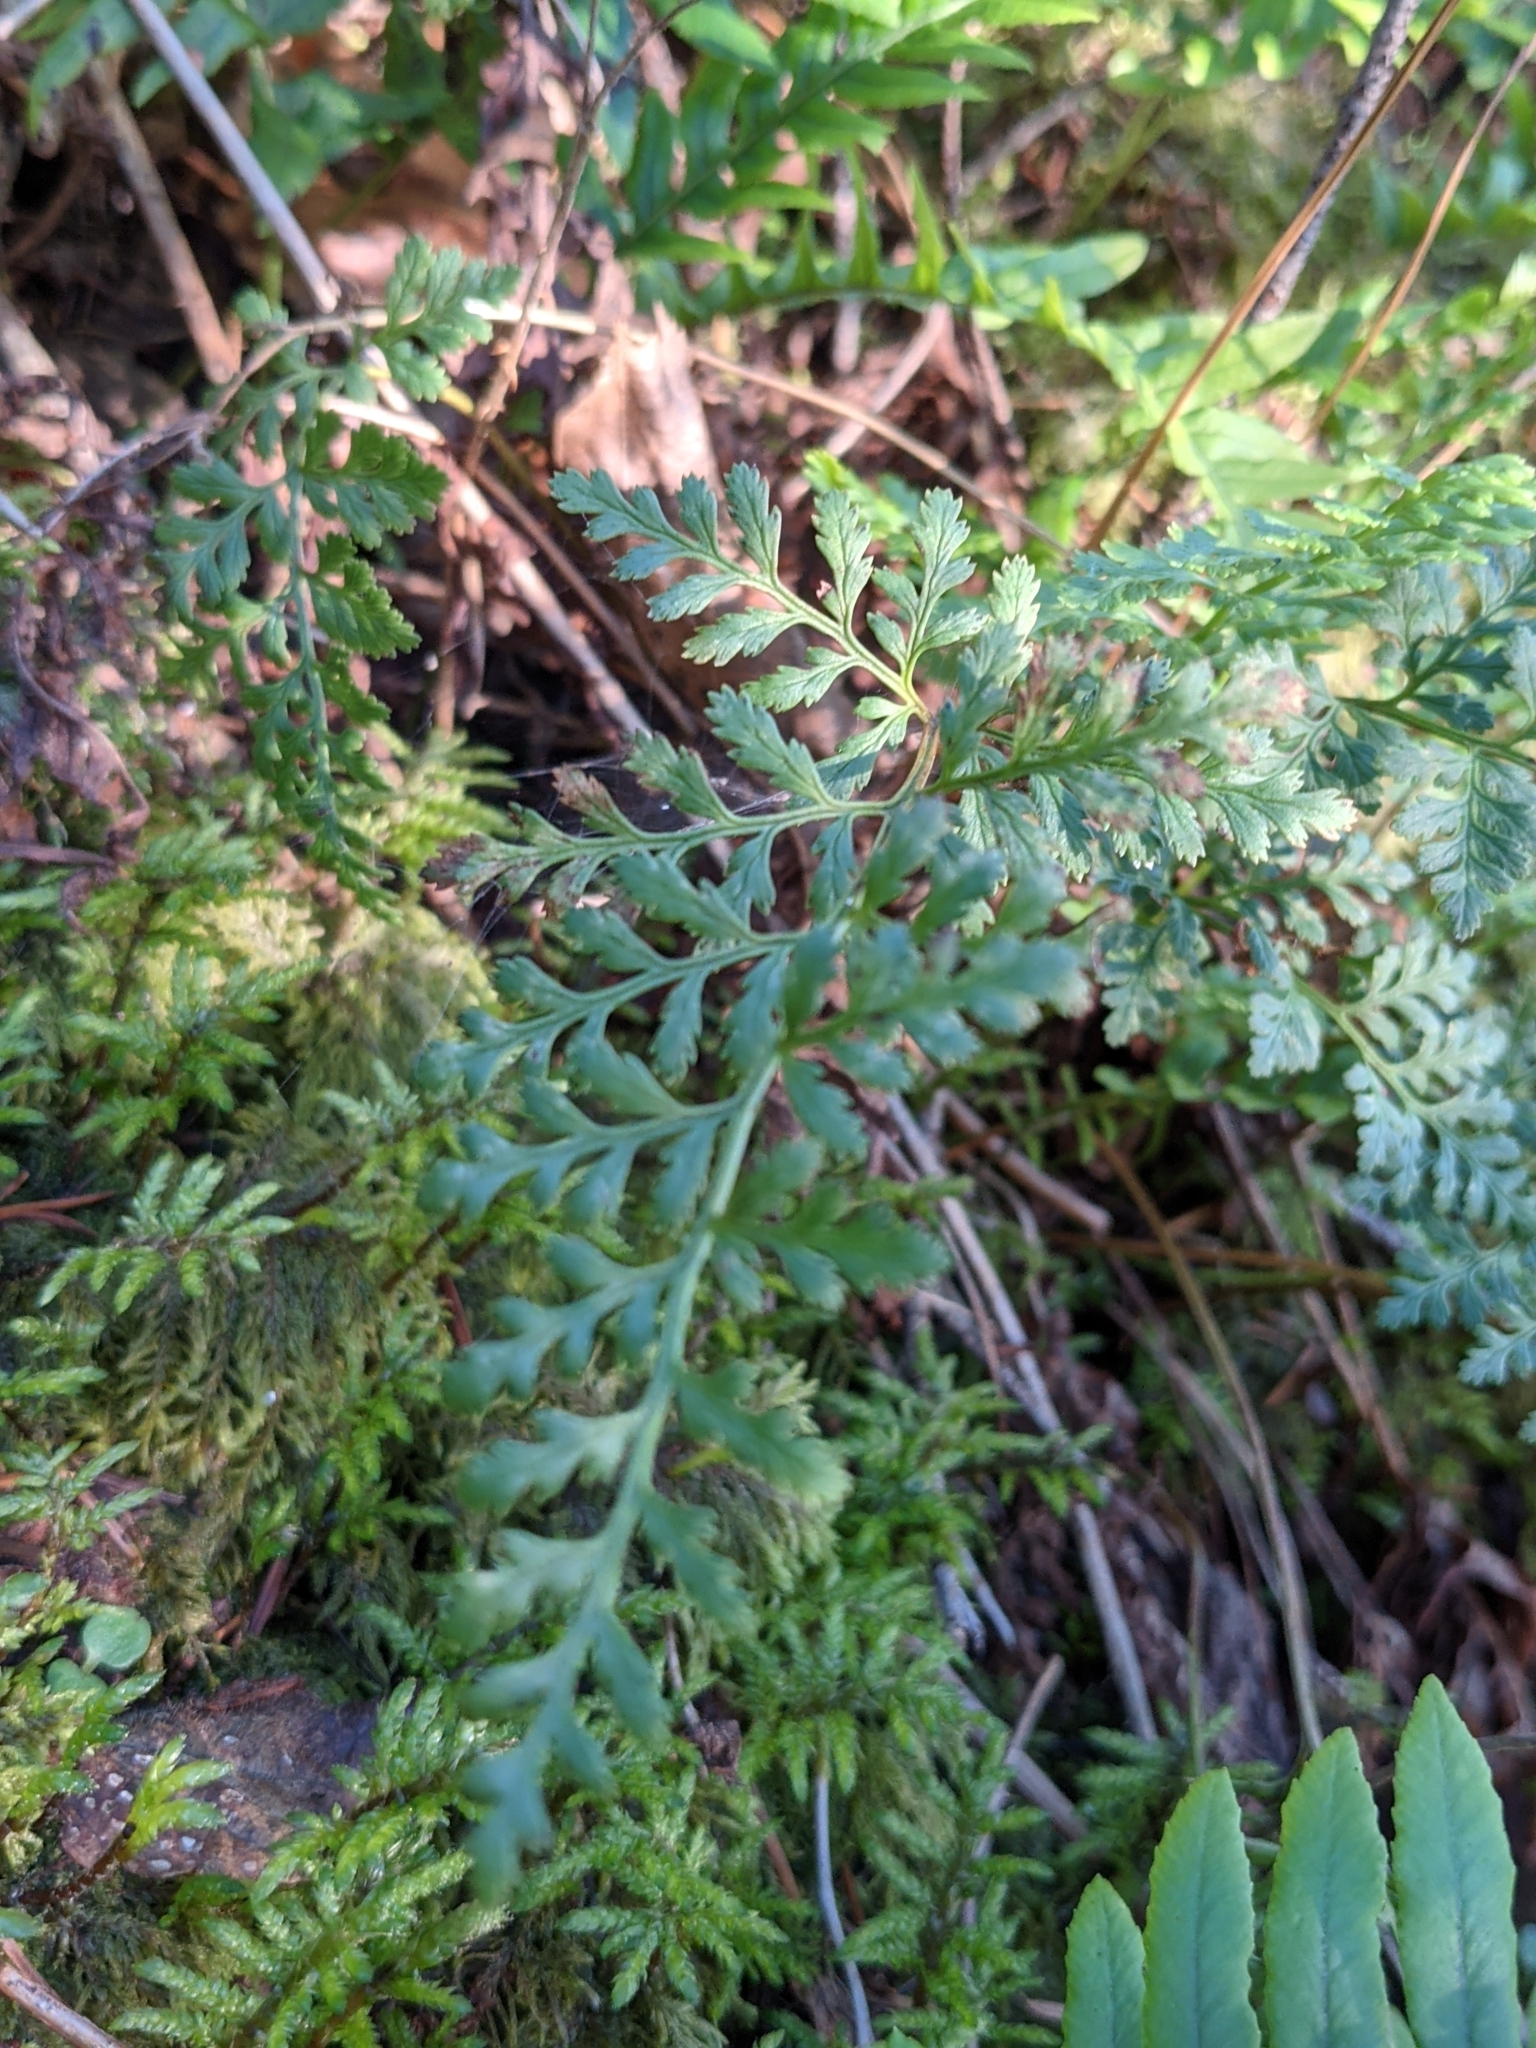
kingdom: Plantae
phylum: Tracheophyta
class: Polypodiopsida
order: Polypodiales
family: Pteridaceae
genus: Cryptogramma
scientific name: Cryptogramma acrostichoides
